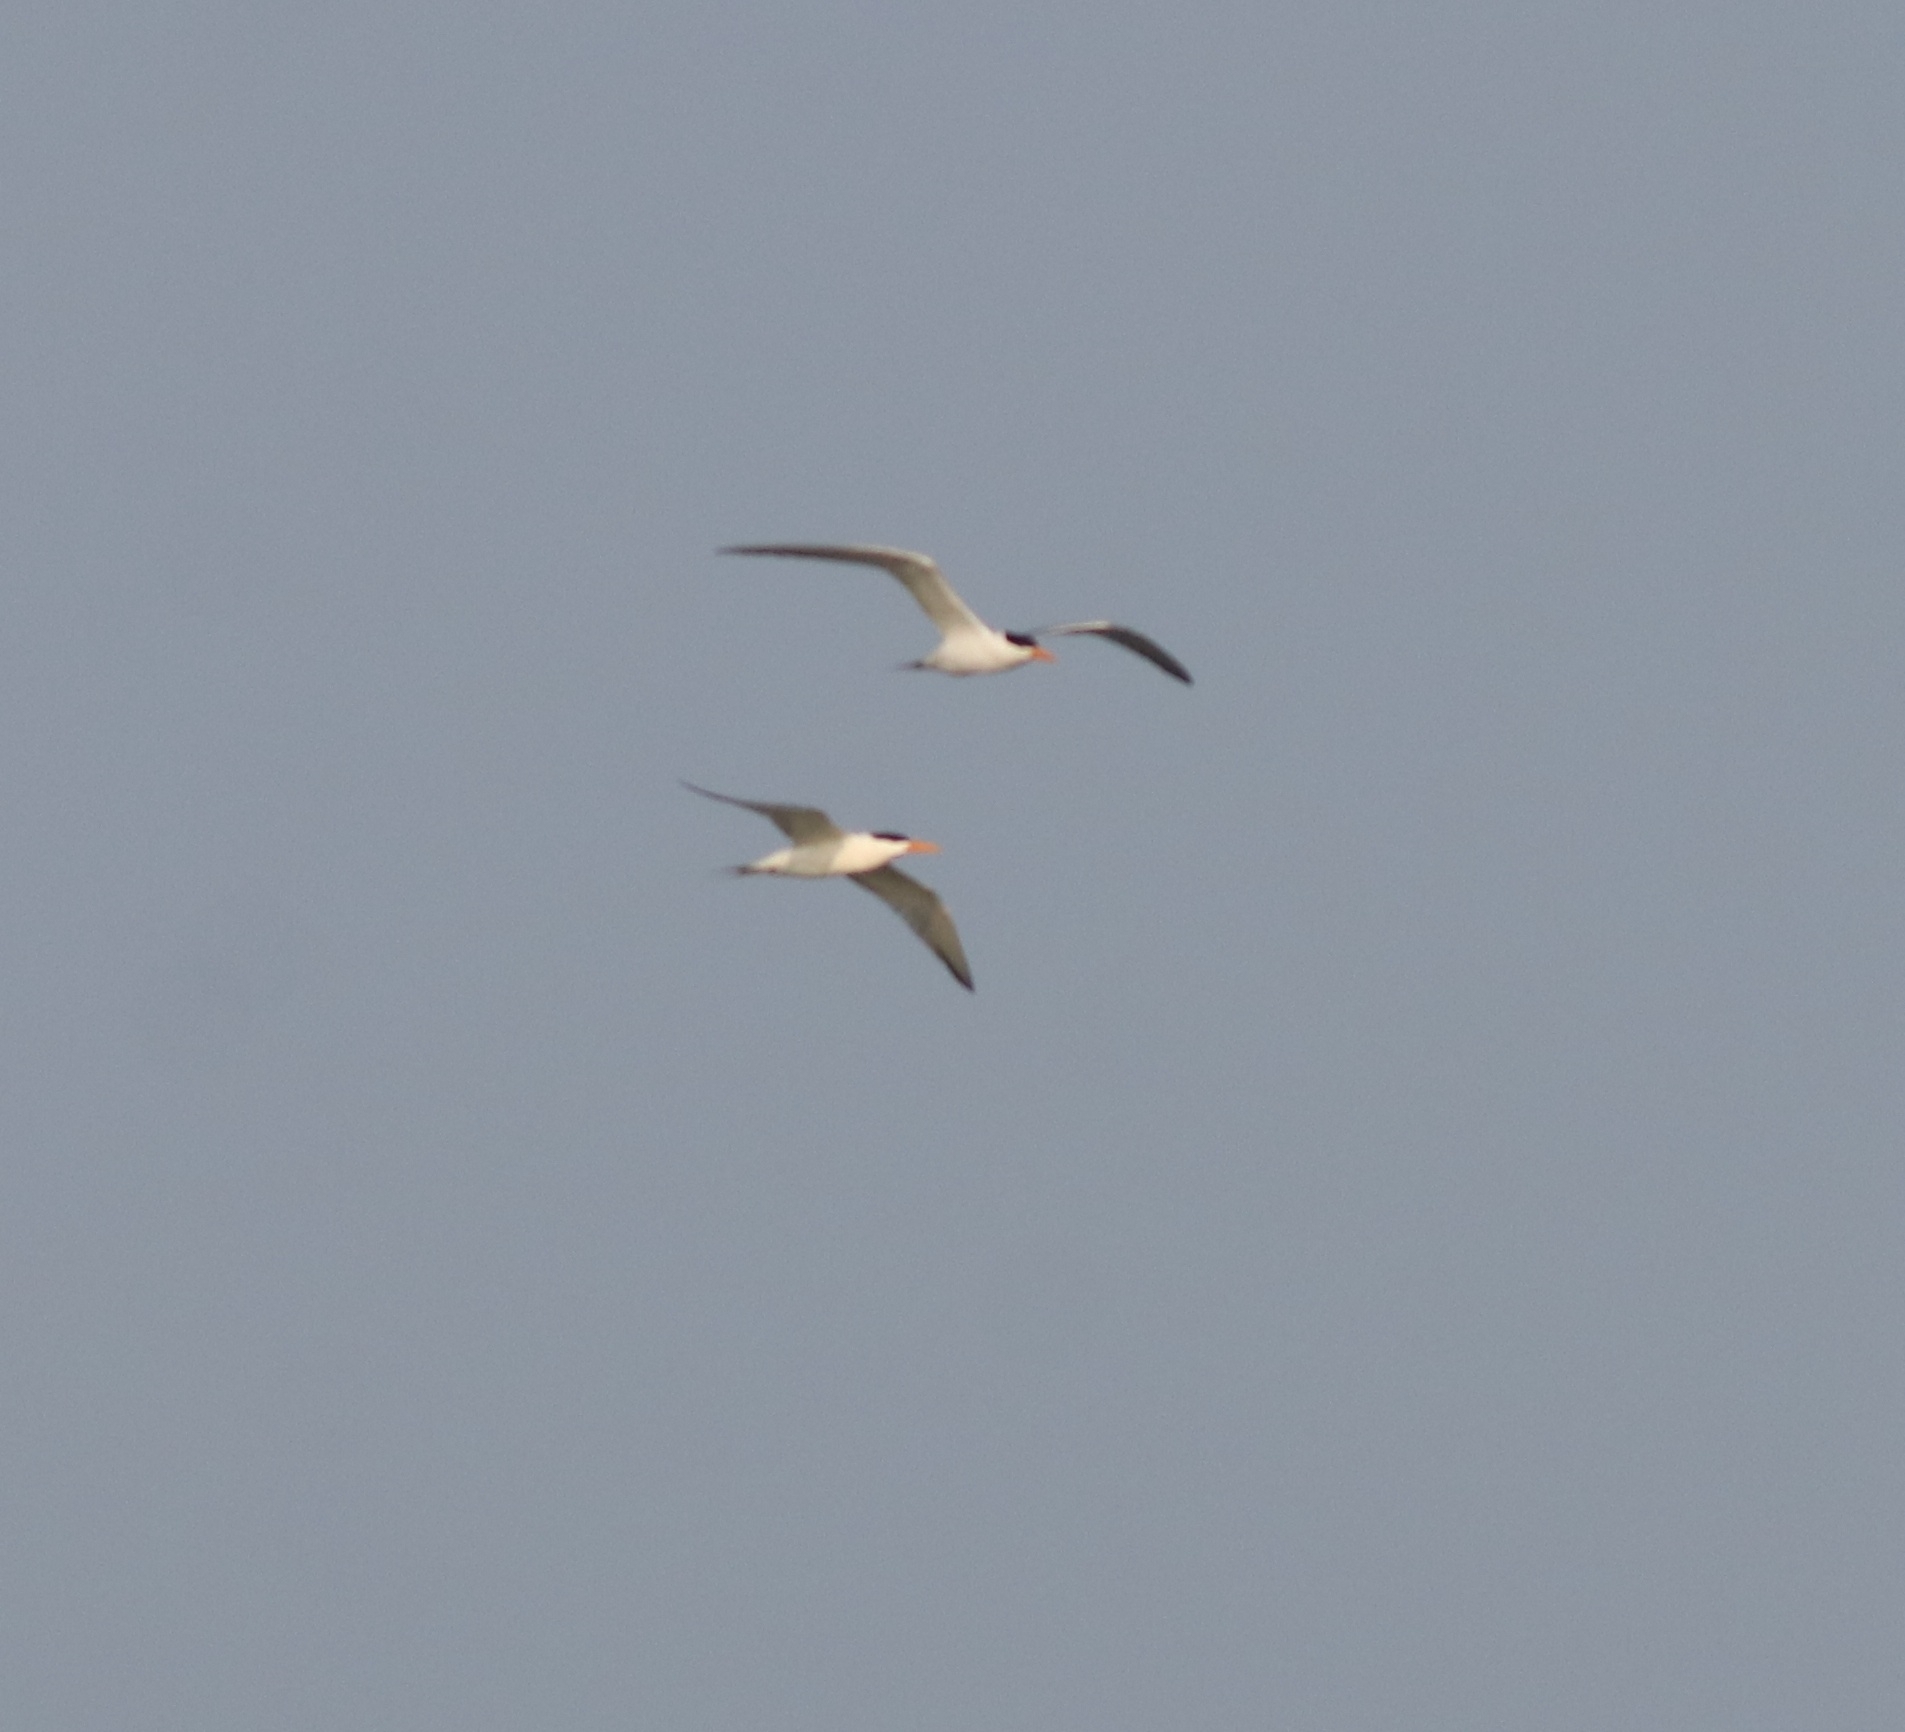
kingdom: Animalia
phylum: Chordata
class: Aves
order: Charadriiformes
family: Laridae
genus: Thalasseus
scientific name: Thalasseus bengalensis
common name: Lesser crested tern
